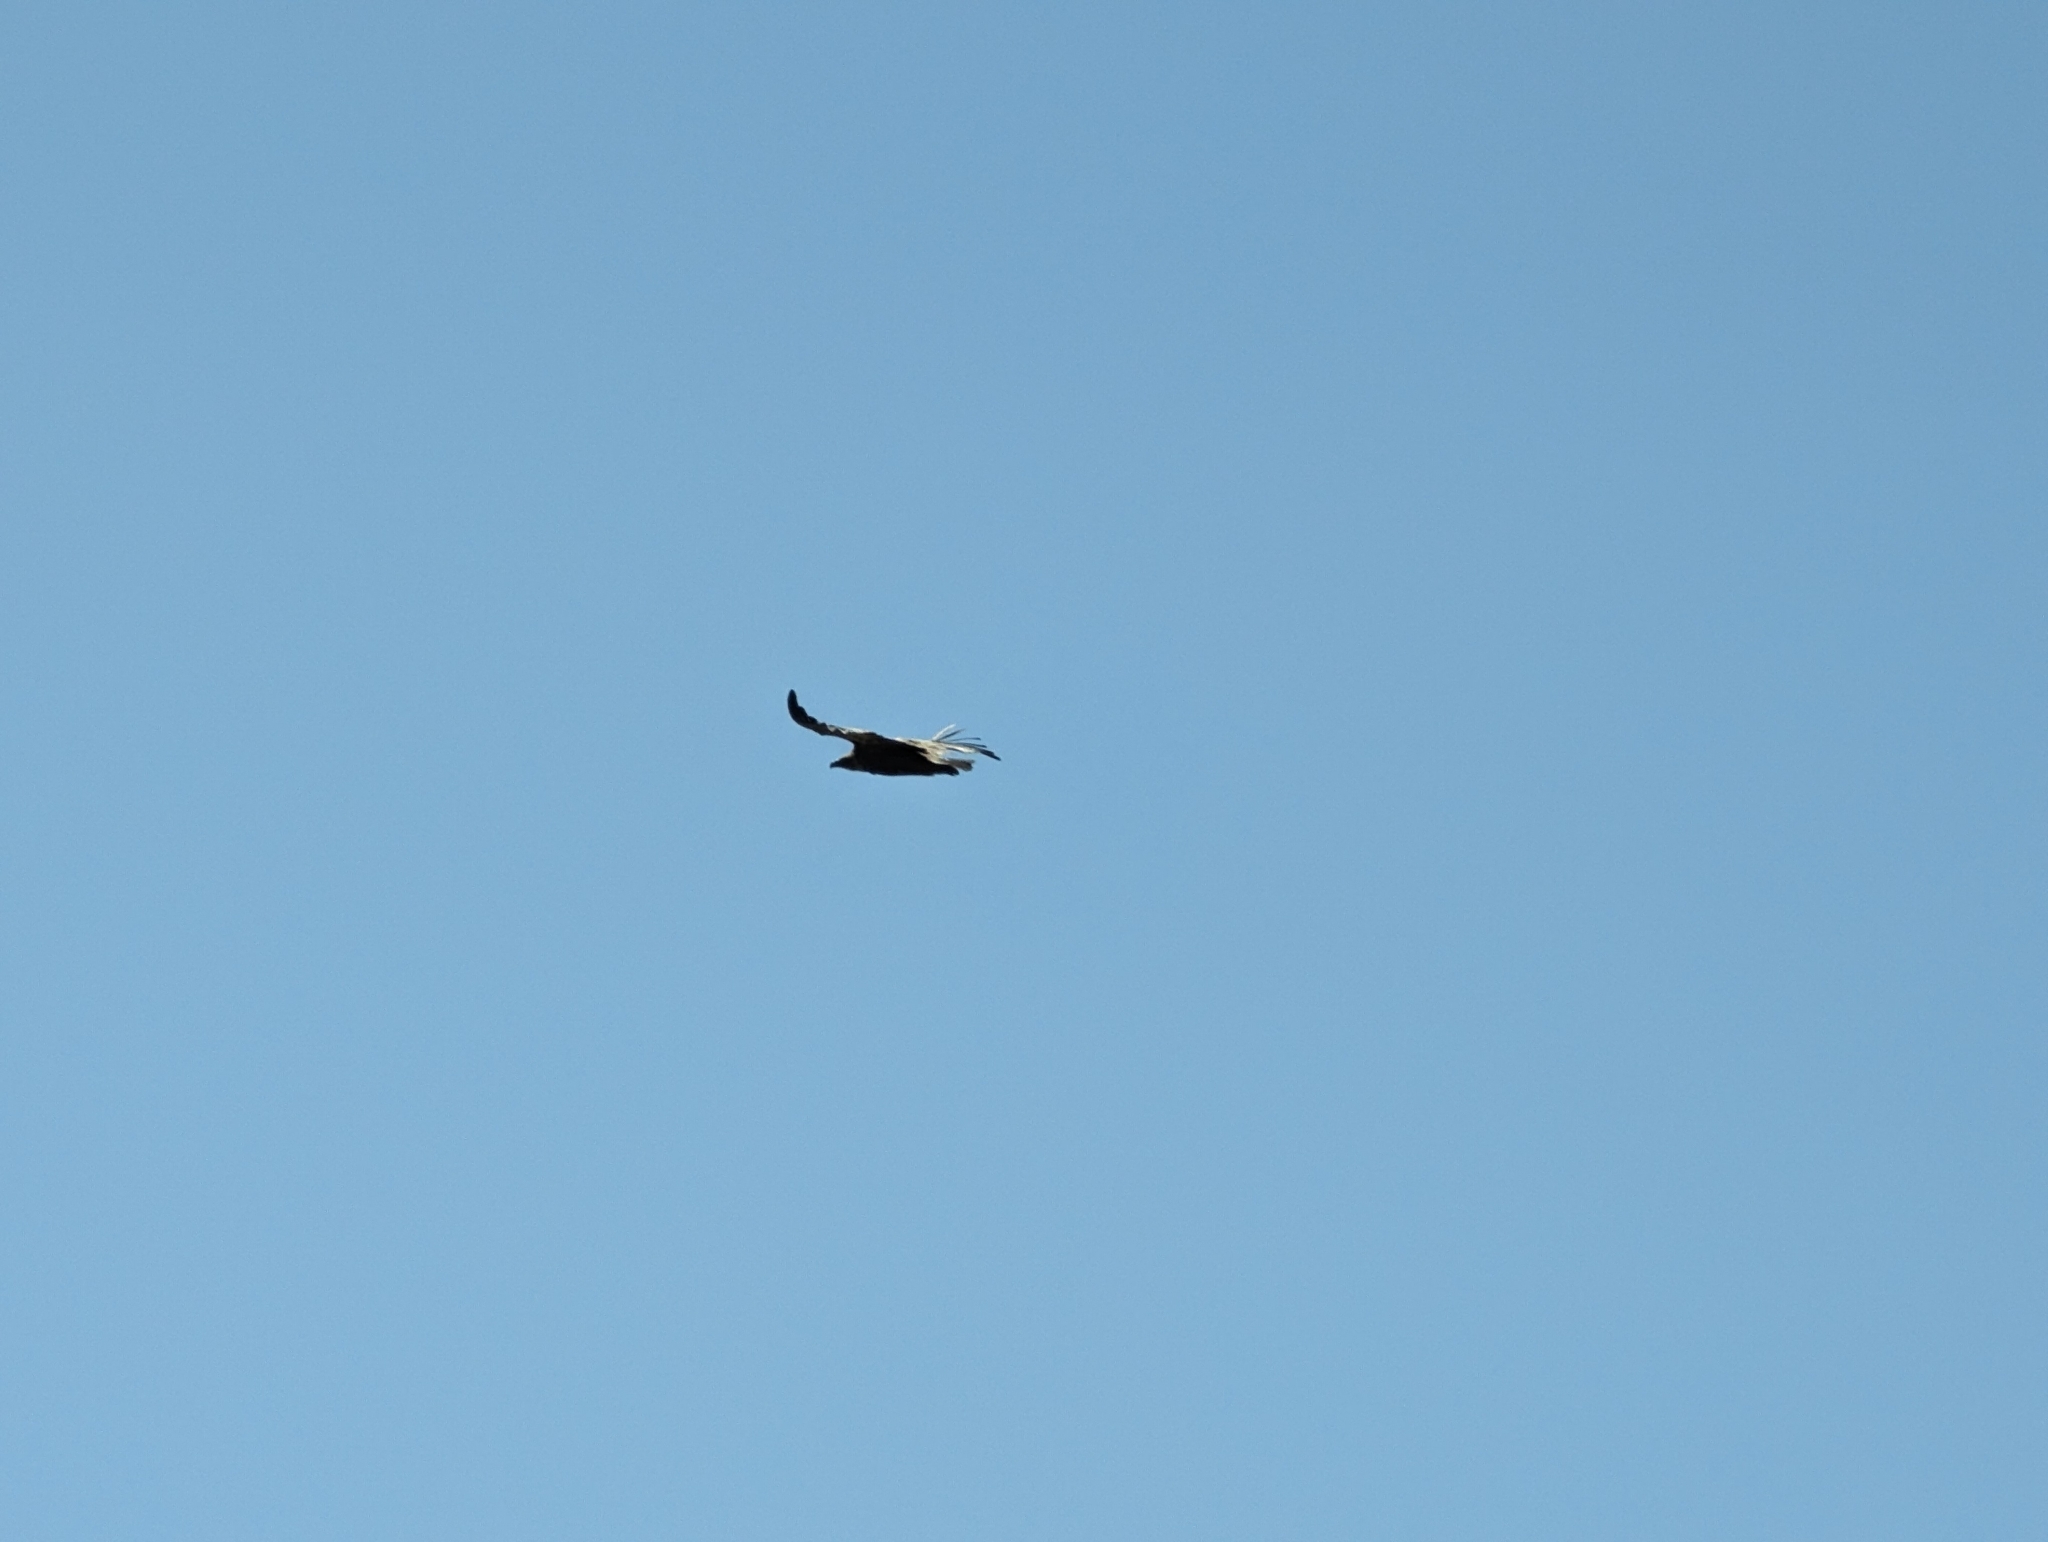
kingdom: Animalia
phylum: Chordata
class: Aves
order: Accipitriformes
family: Accipitridae
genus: Gyps
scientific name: Gyps fulvus
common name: Griffon vulture
